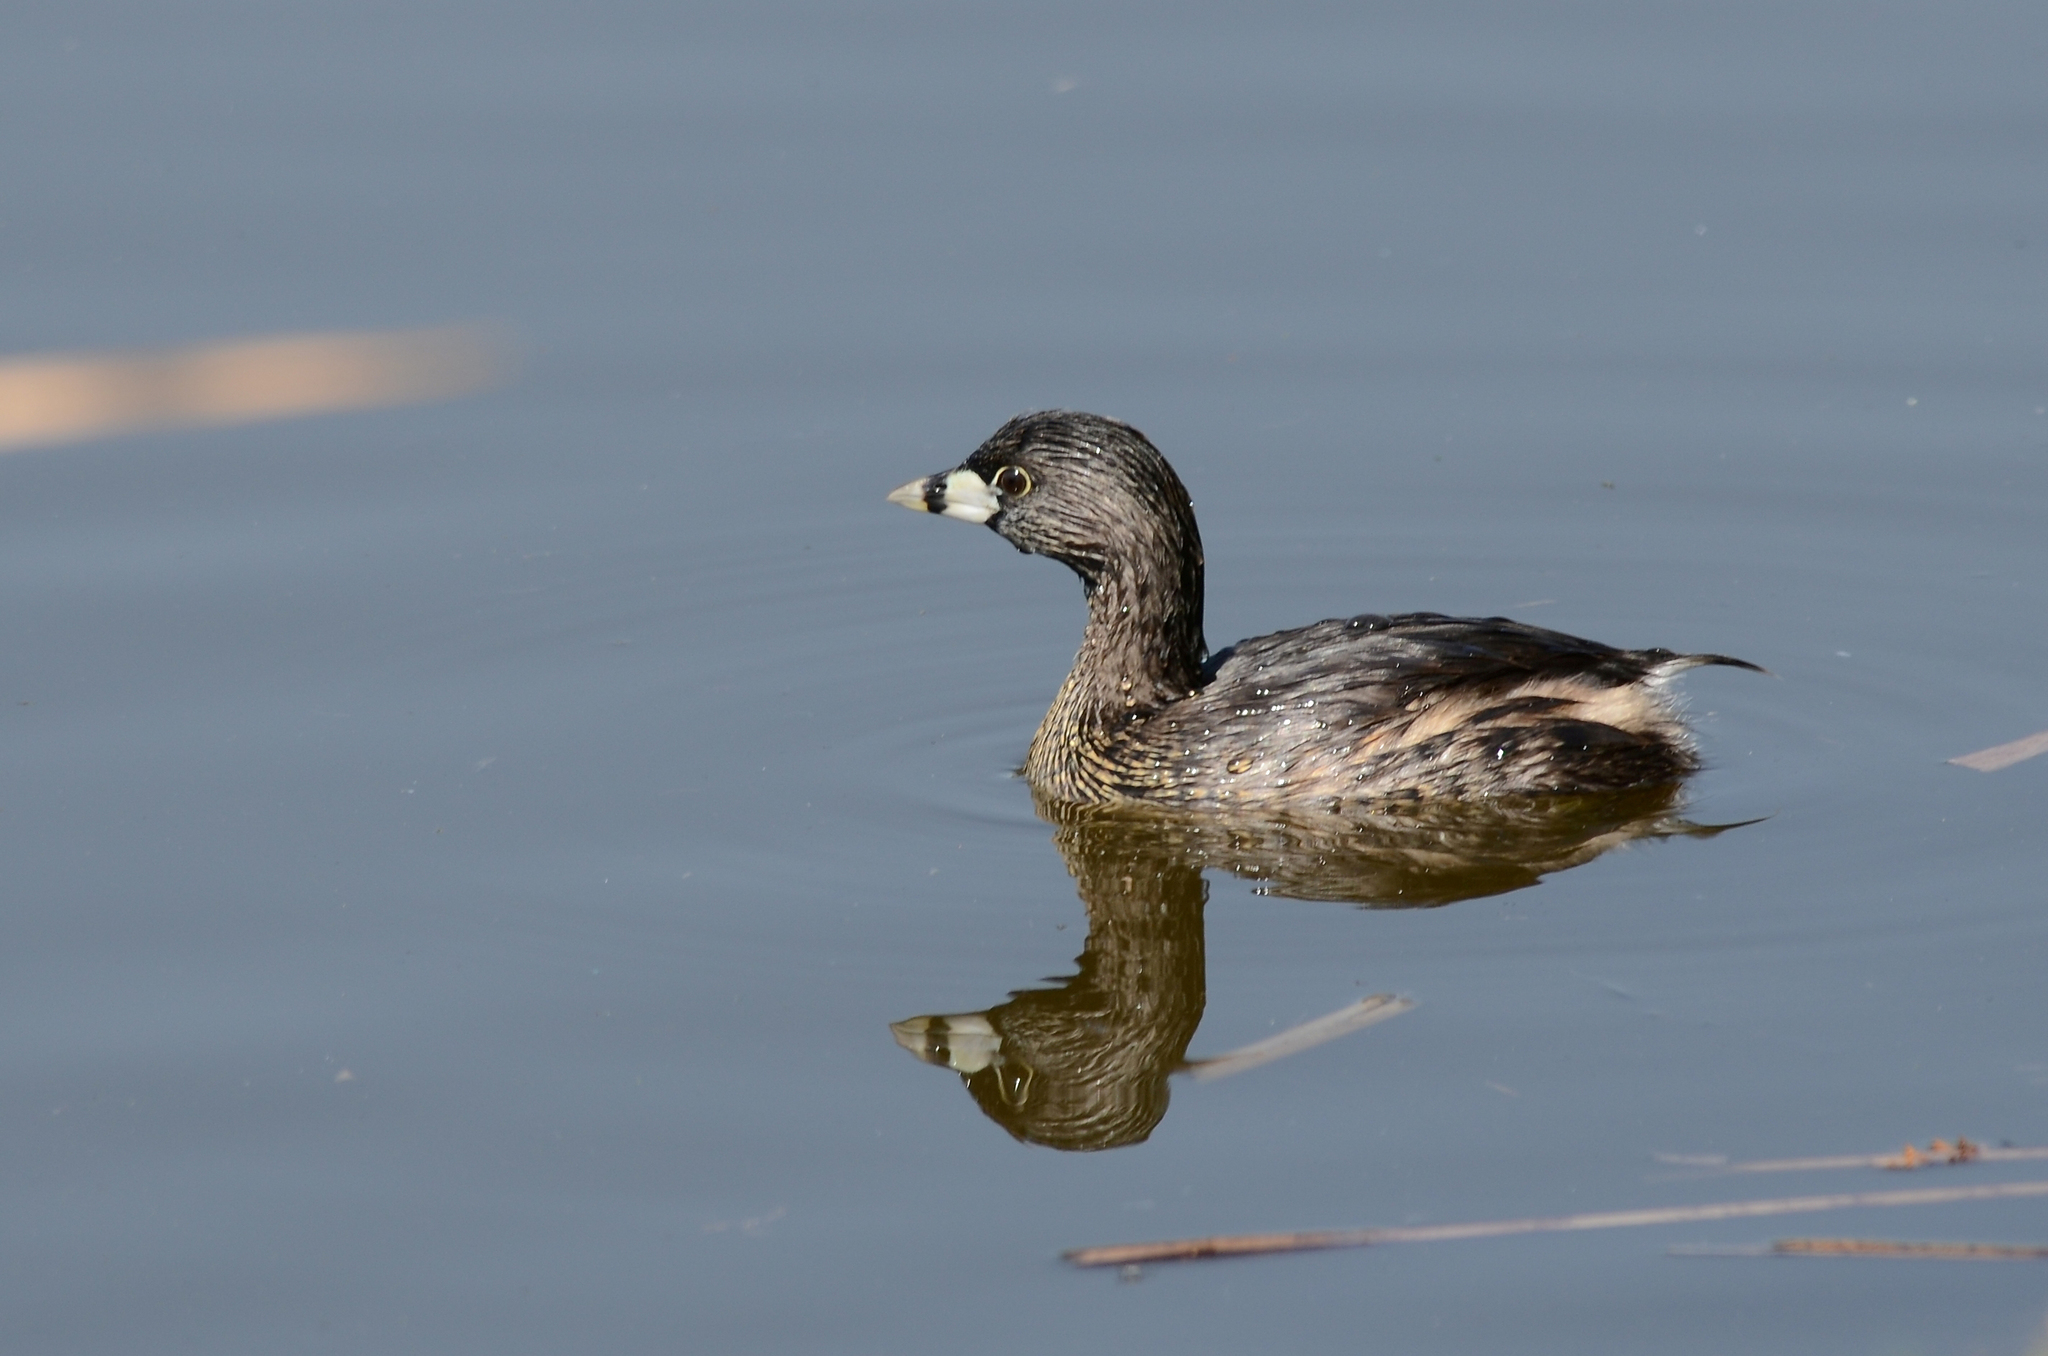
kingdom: Animalia
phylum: Chordata
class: Aves
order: Podicipediformes
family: Podicipedidae
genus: Podilymbus
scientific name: Podilymbus podiceps
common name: Pied-billed grebe
